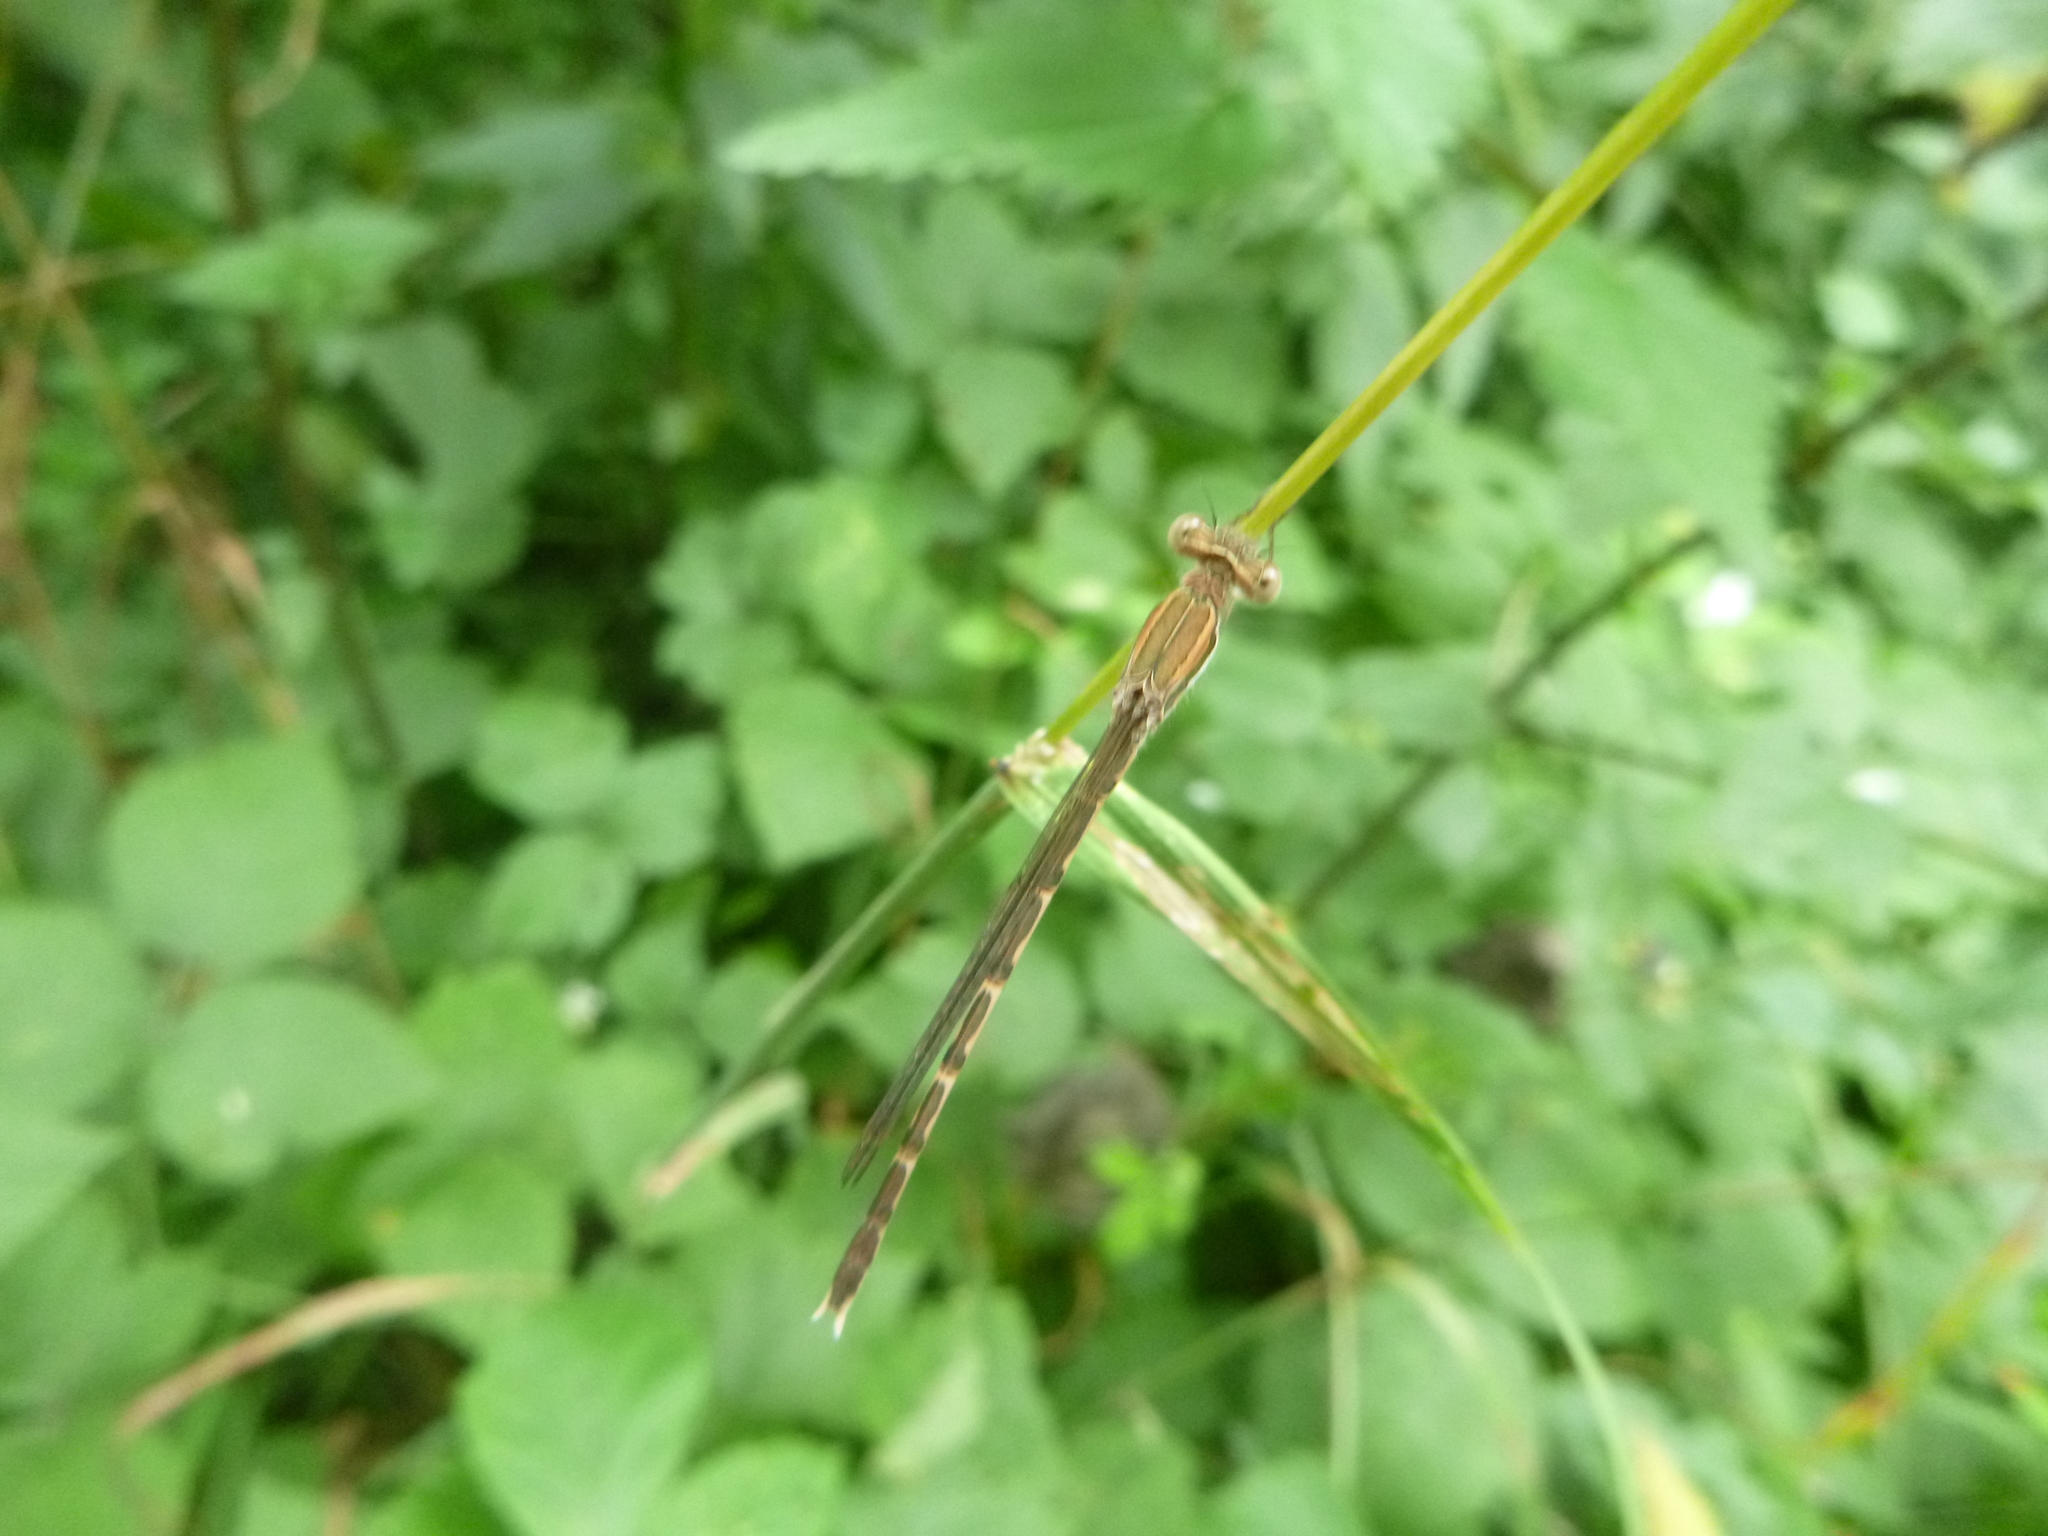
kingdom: Animalia
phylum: Arthropoda
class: Insecta
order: Odonata
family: Lestidae
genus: Sympecma
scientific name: Sympecma fusca
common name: Common winter damsel
